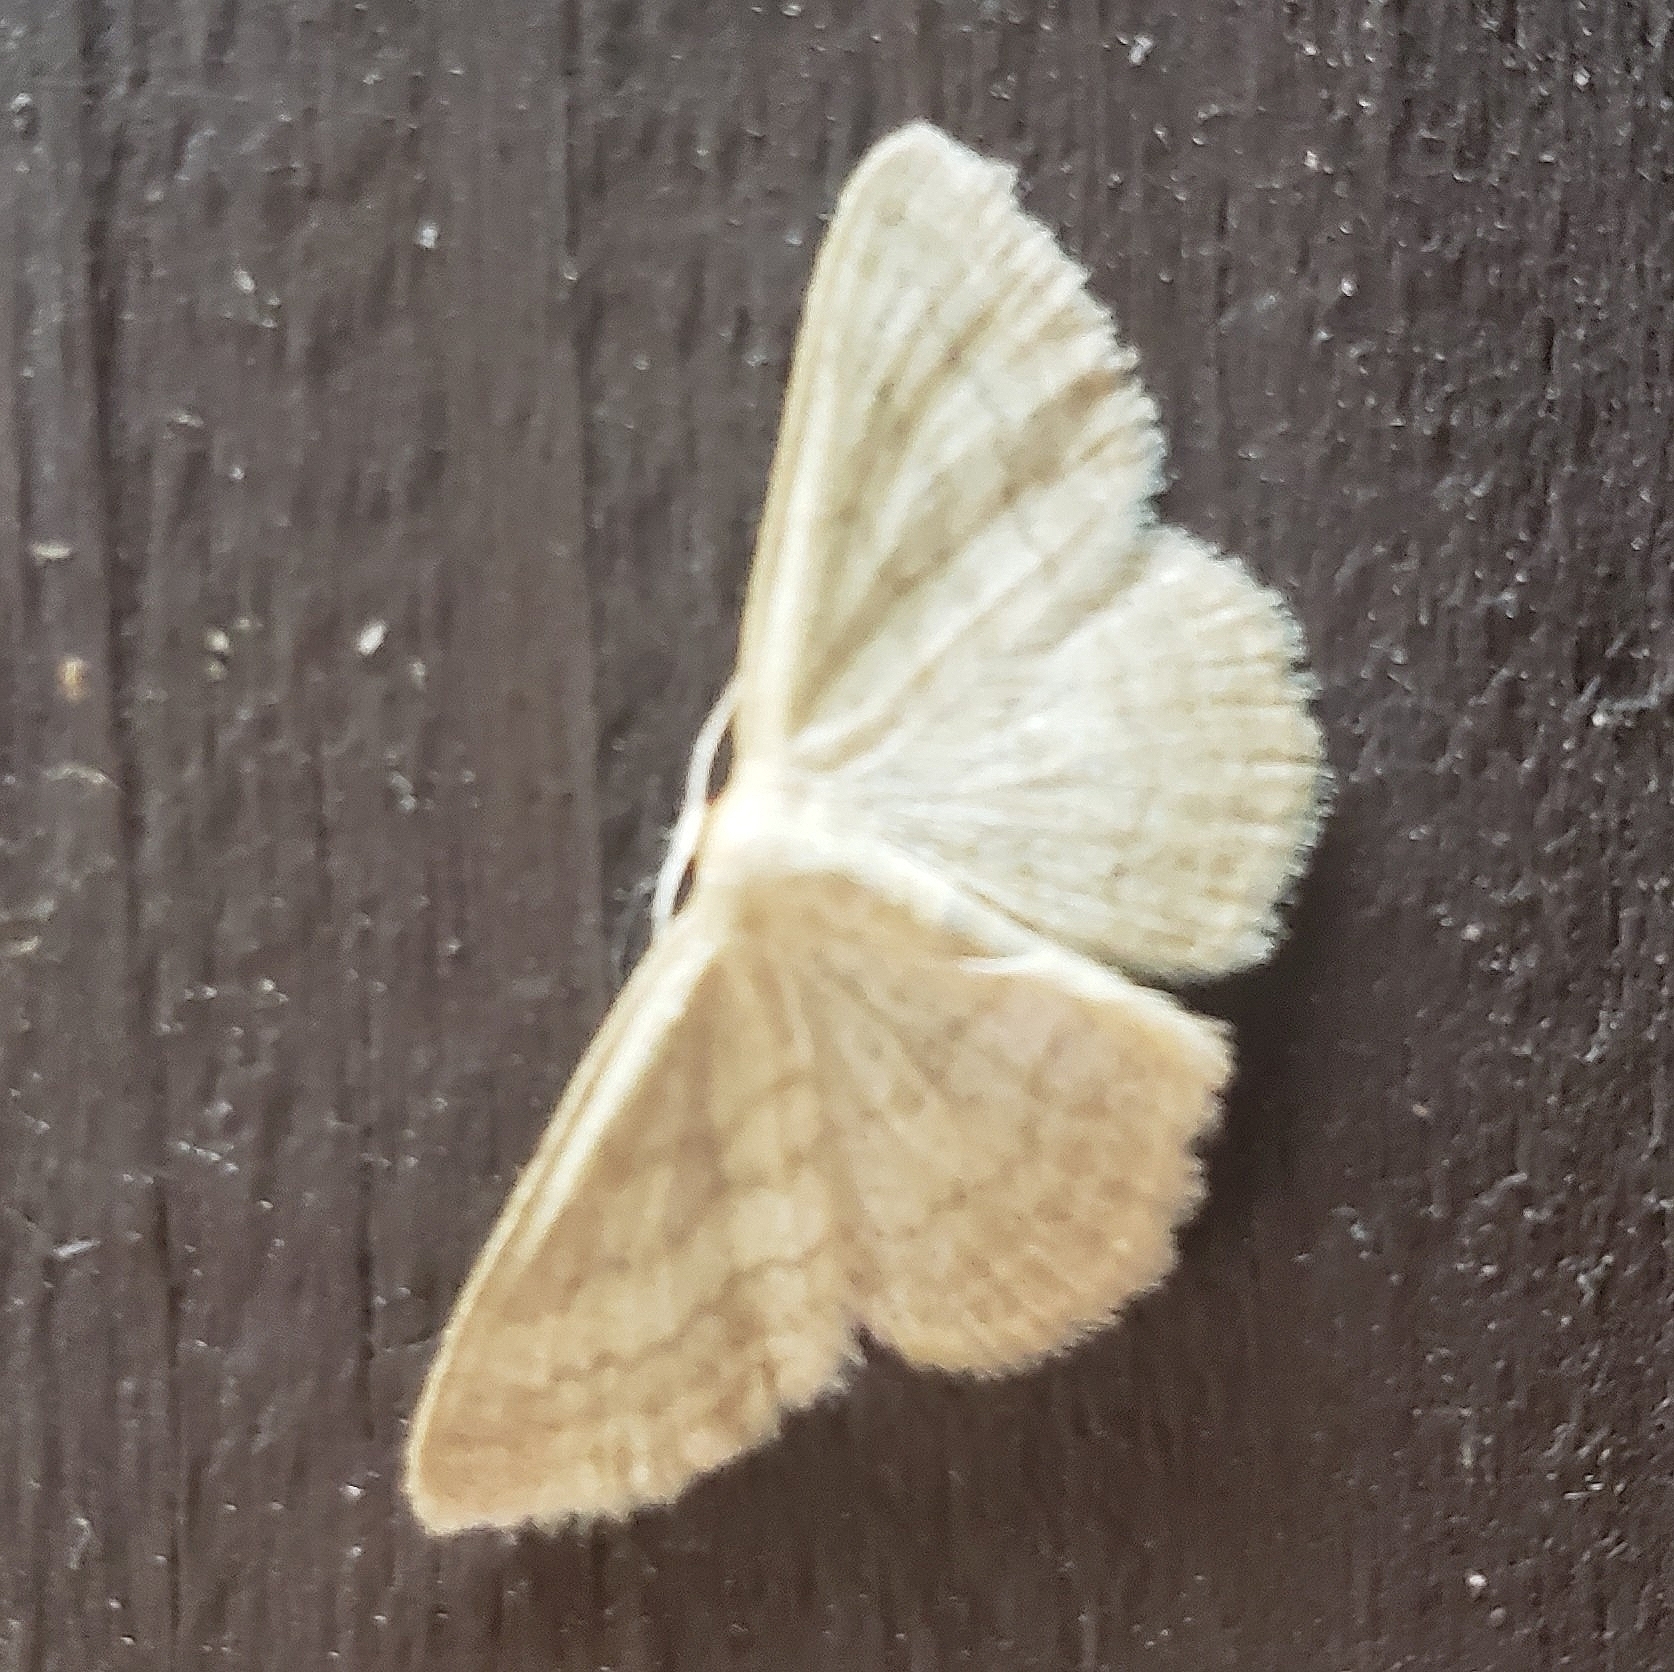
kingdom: Animalia
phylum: Arthropoda
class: Insecta
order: Lepidoptera
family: Geometridae
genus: Scopula
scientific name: Scopula inductata
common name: Soft-lined wave
